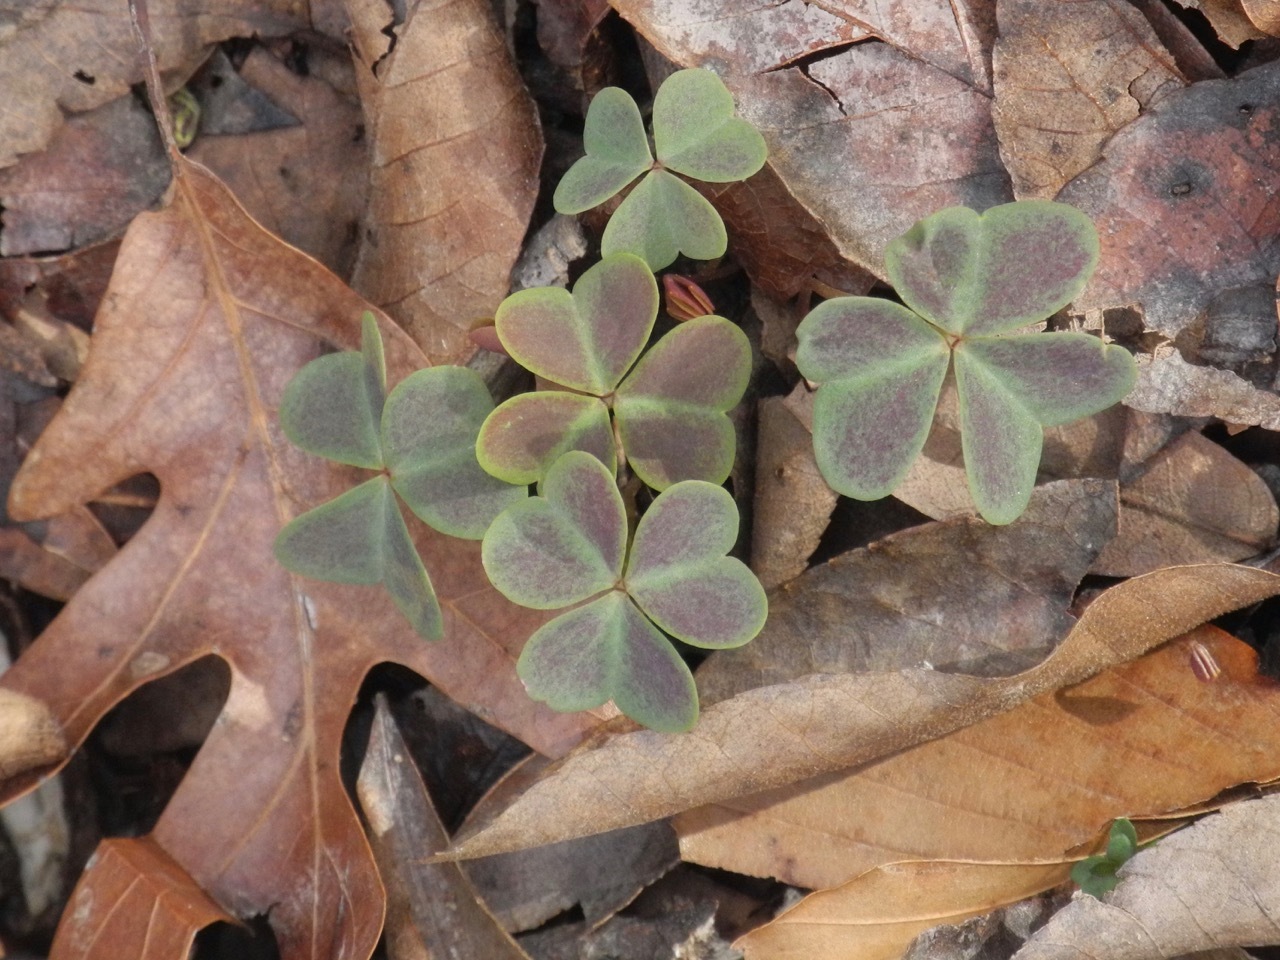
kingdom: Plantae
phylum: Tracheophyta
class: Magnoliopsida
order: Oxalidales
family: Oxalidaceae
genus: Oxalis
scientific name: Oxalis violacea
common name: Violet wood-sorrel
